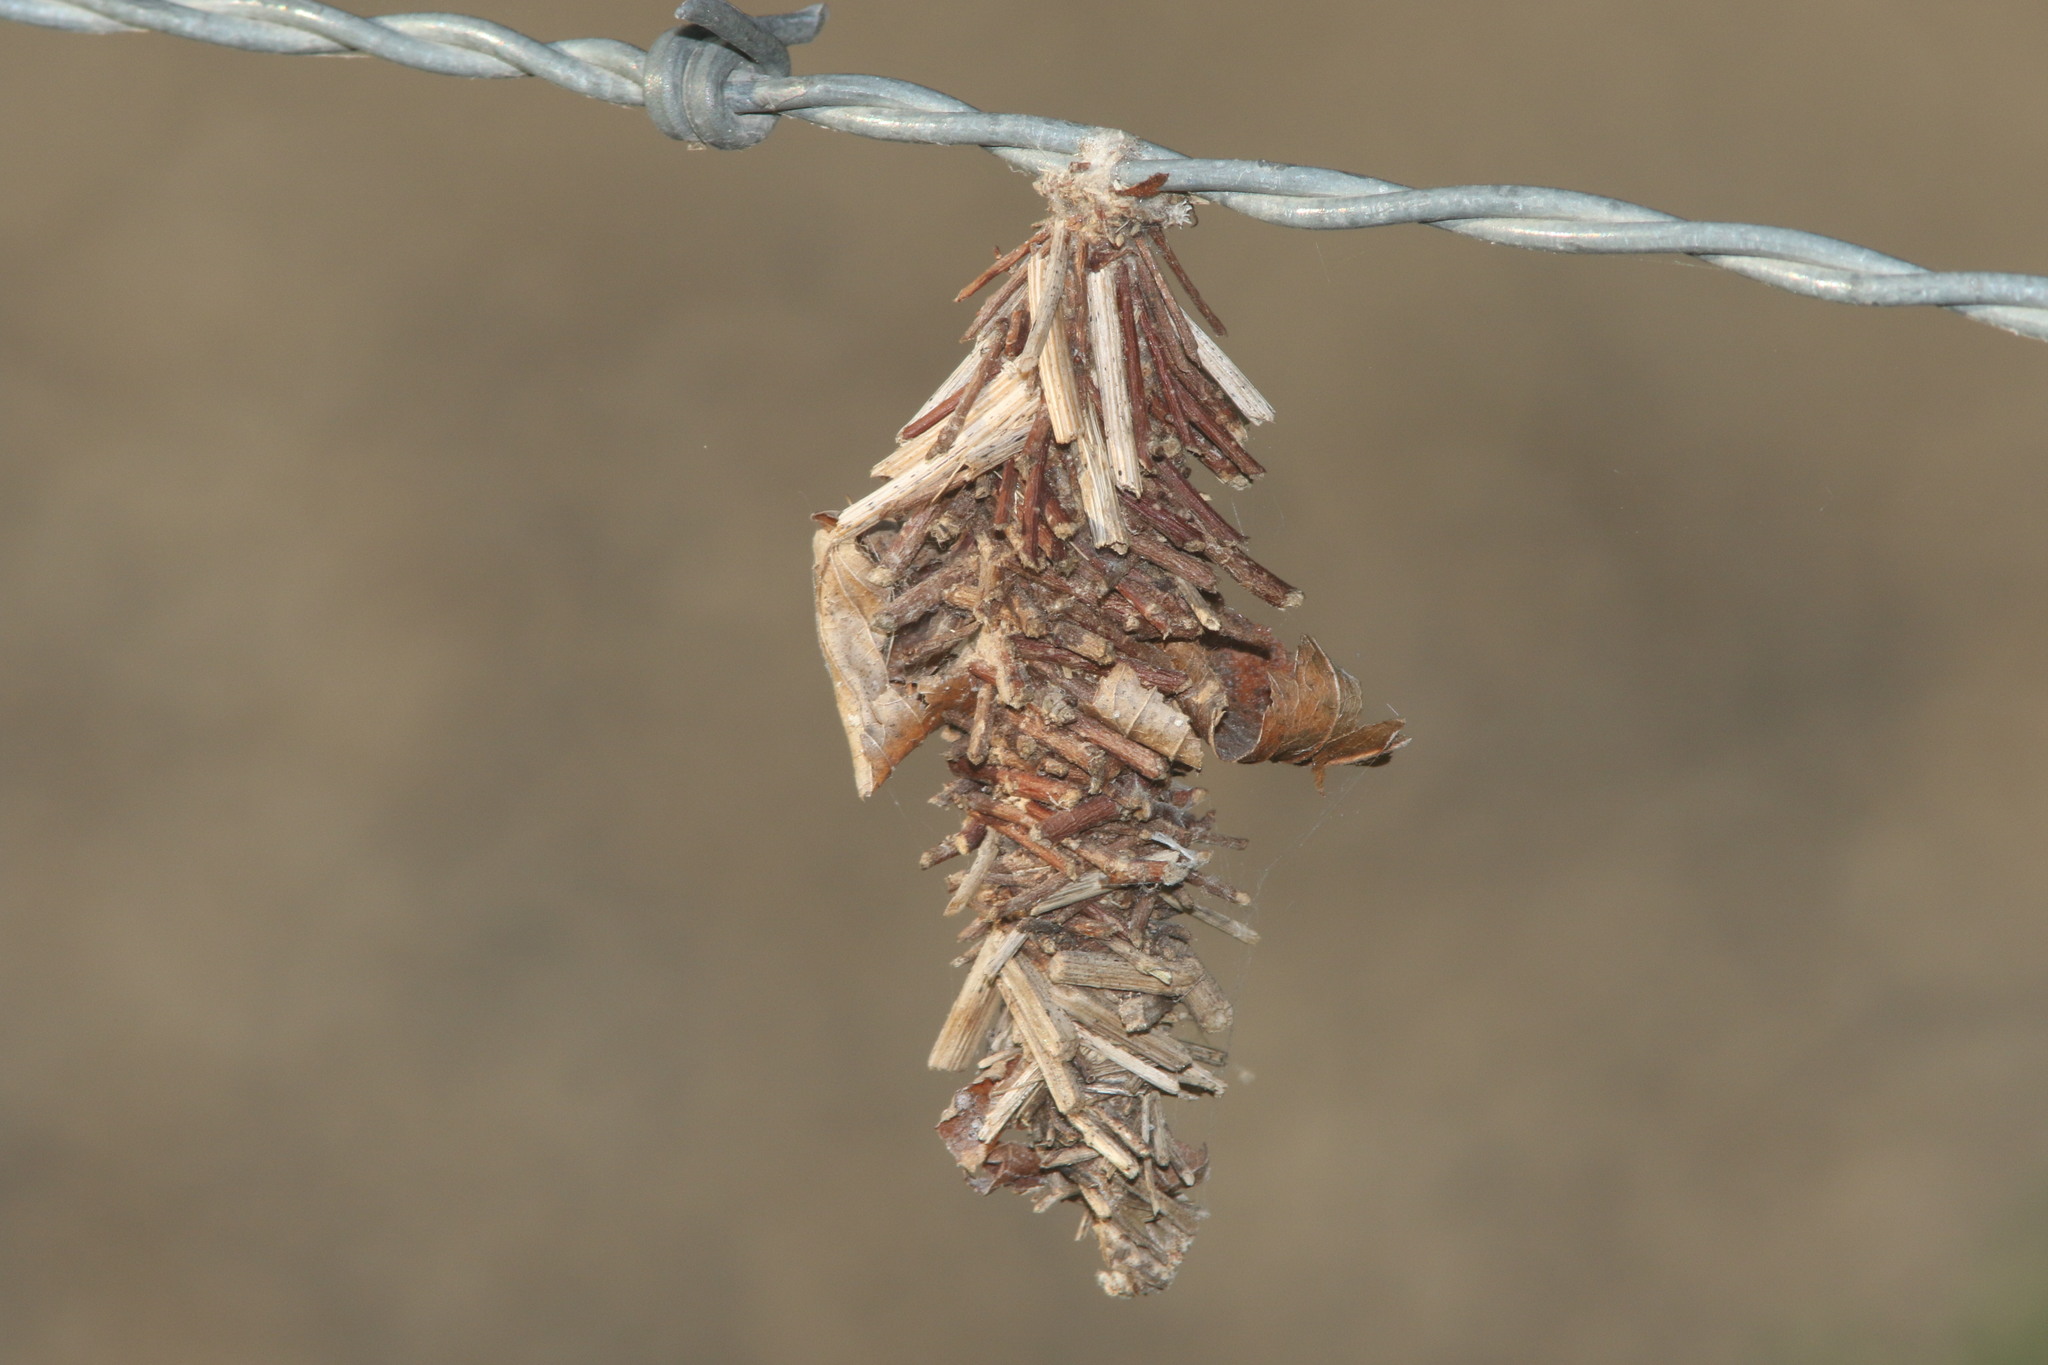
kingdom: Animalia
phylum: Arthropoda
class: Insecta
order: Lepidoptera
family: Psychidae
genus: Oiketicus
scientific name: Oiketicus
